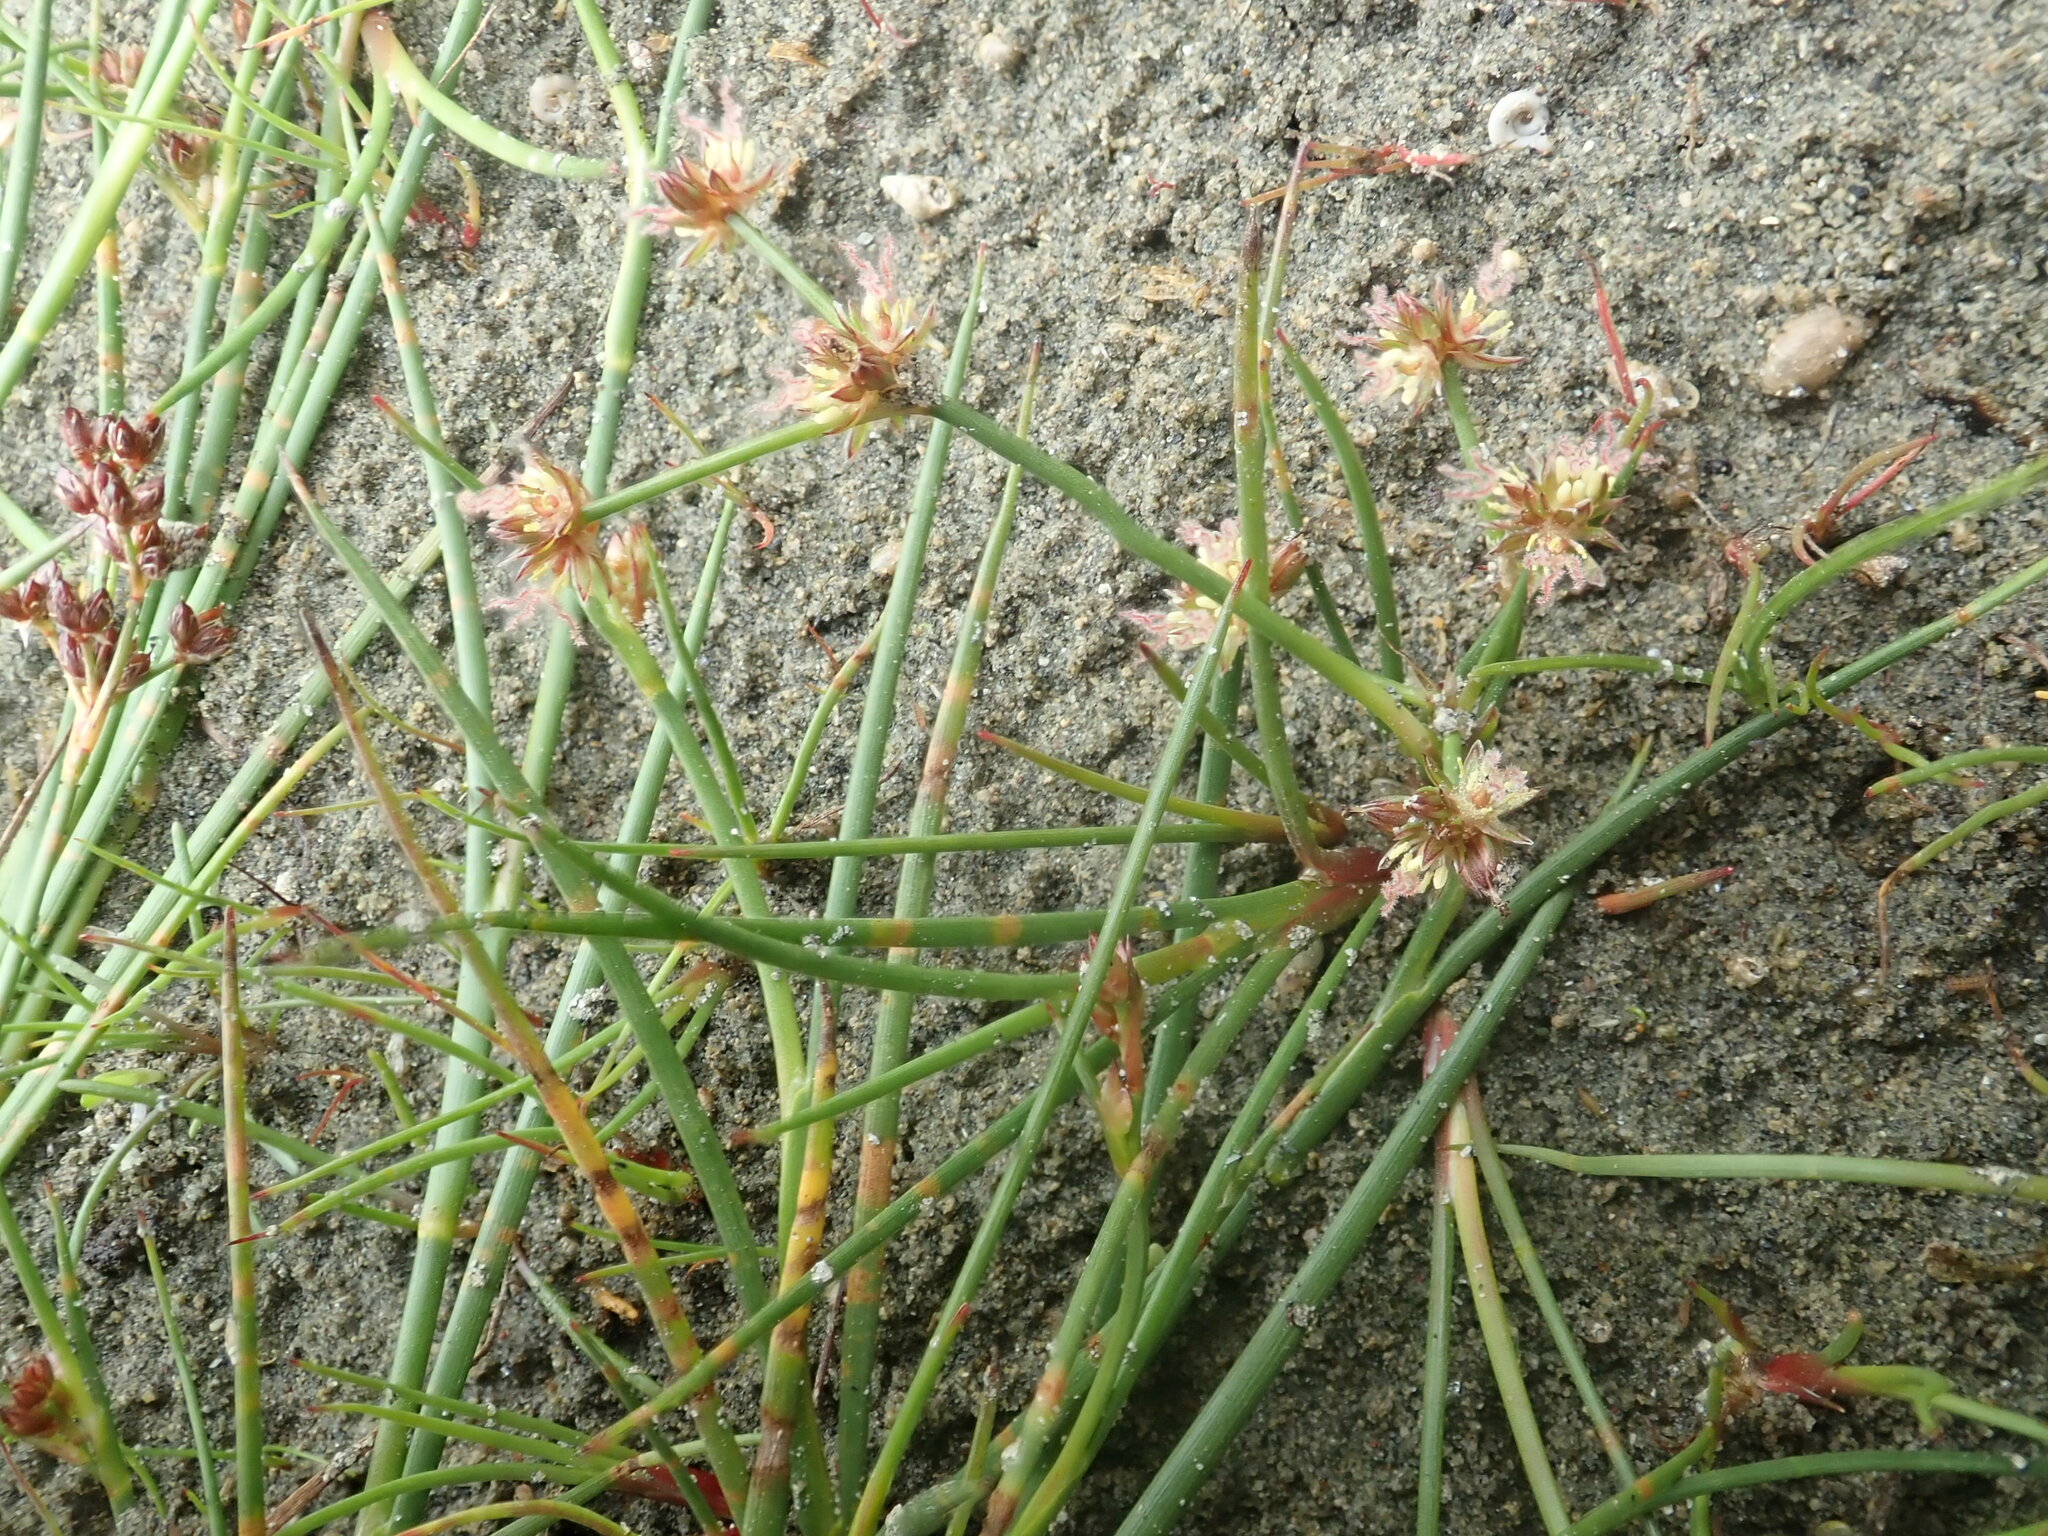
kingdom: Plantae
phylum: Tracheophyta
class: Liliopsida
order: Poales
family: Juncaceae
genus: Juncus
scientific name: Juncus articulatus
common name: Jointed rush
